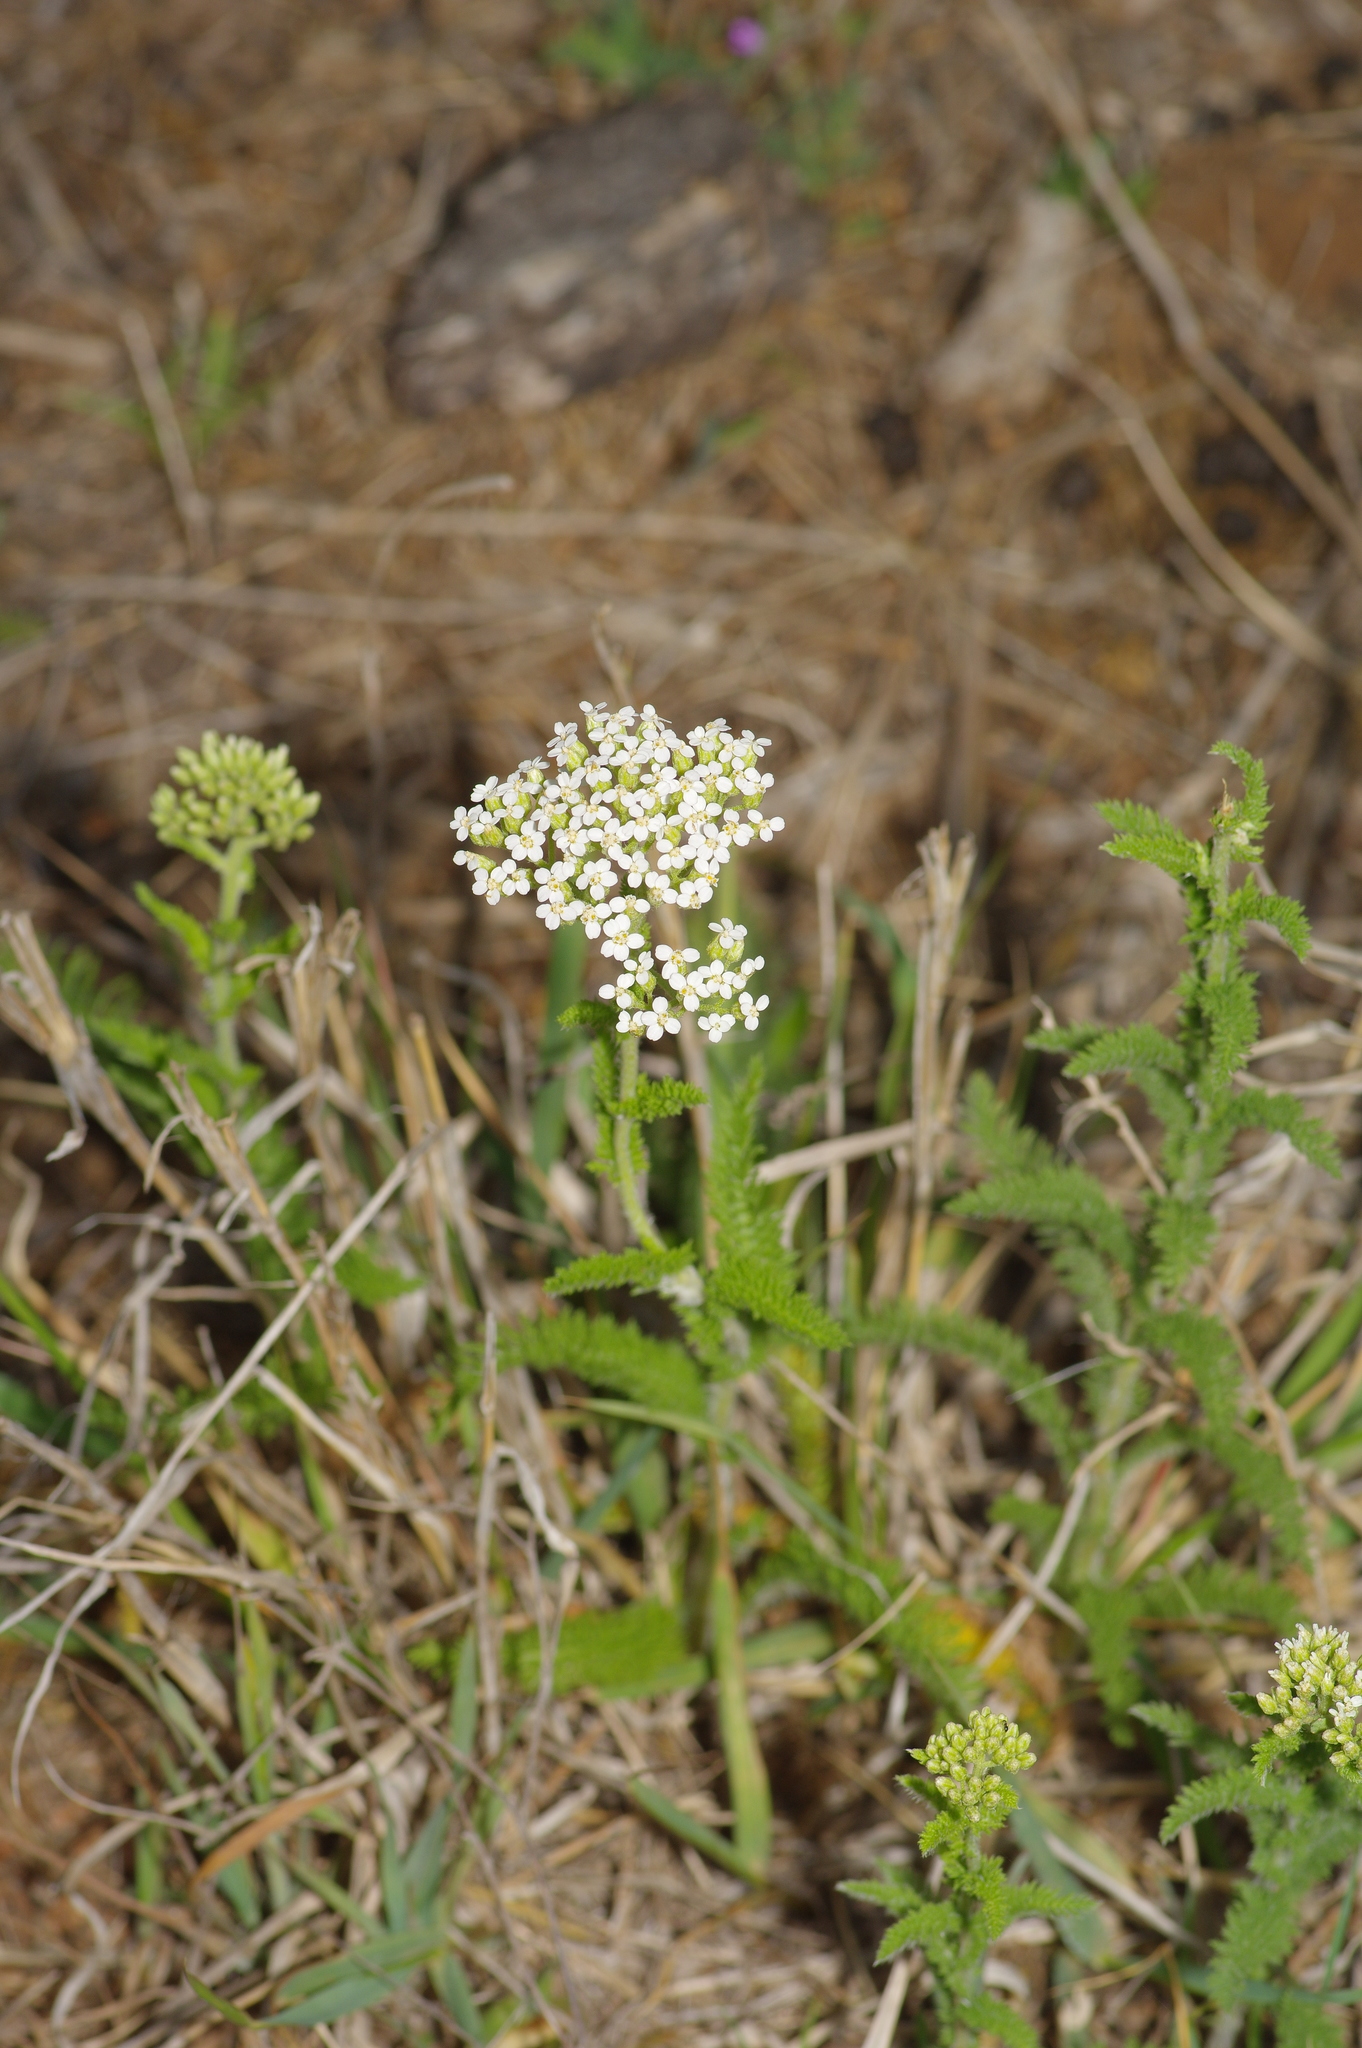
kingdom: Plantae
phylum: Tracheophyta
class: Magnoliopsida
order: Asterales
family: Asteraceae
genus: Achillea
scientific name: Achillea millefolium
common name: Yarrow
